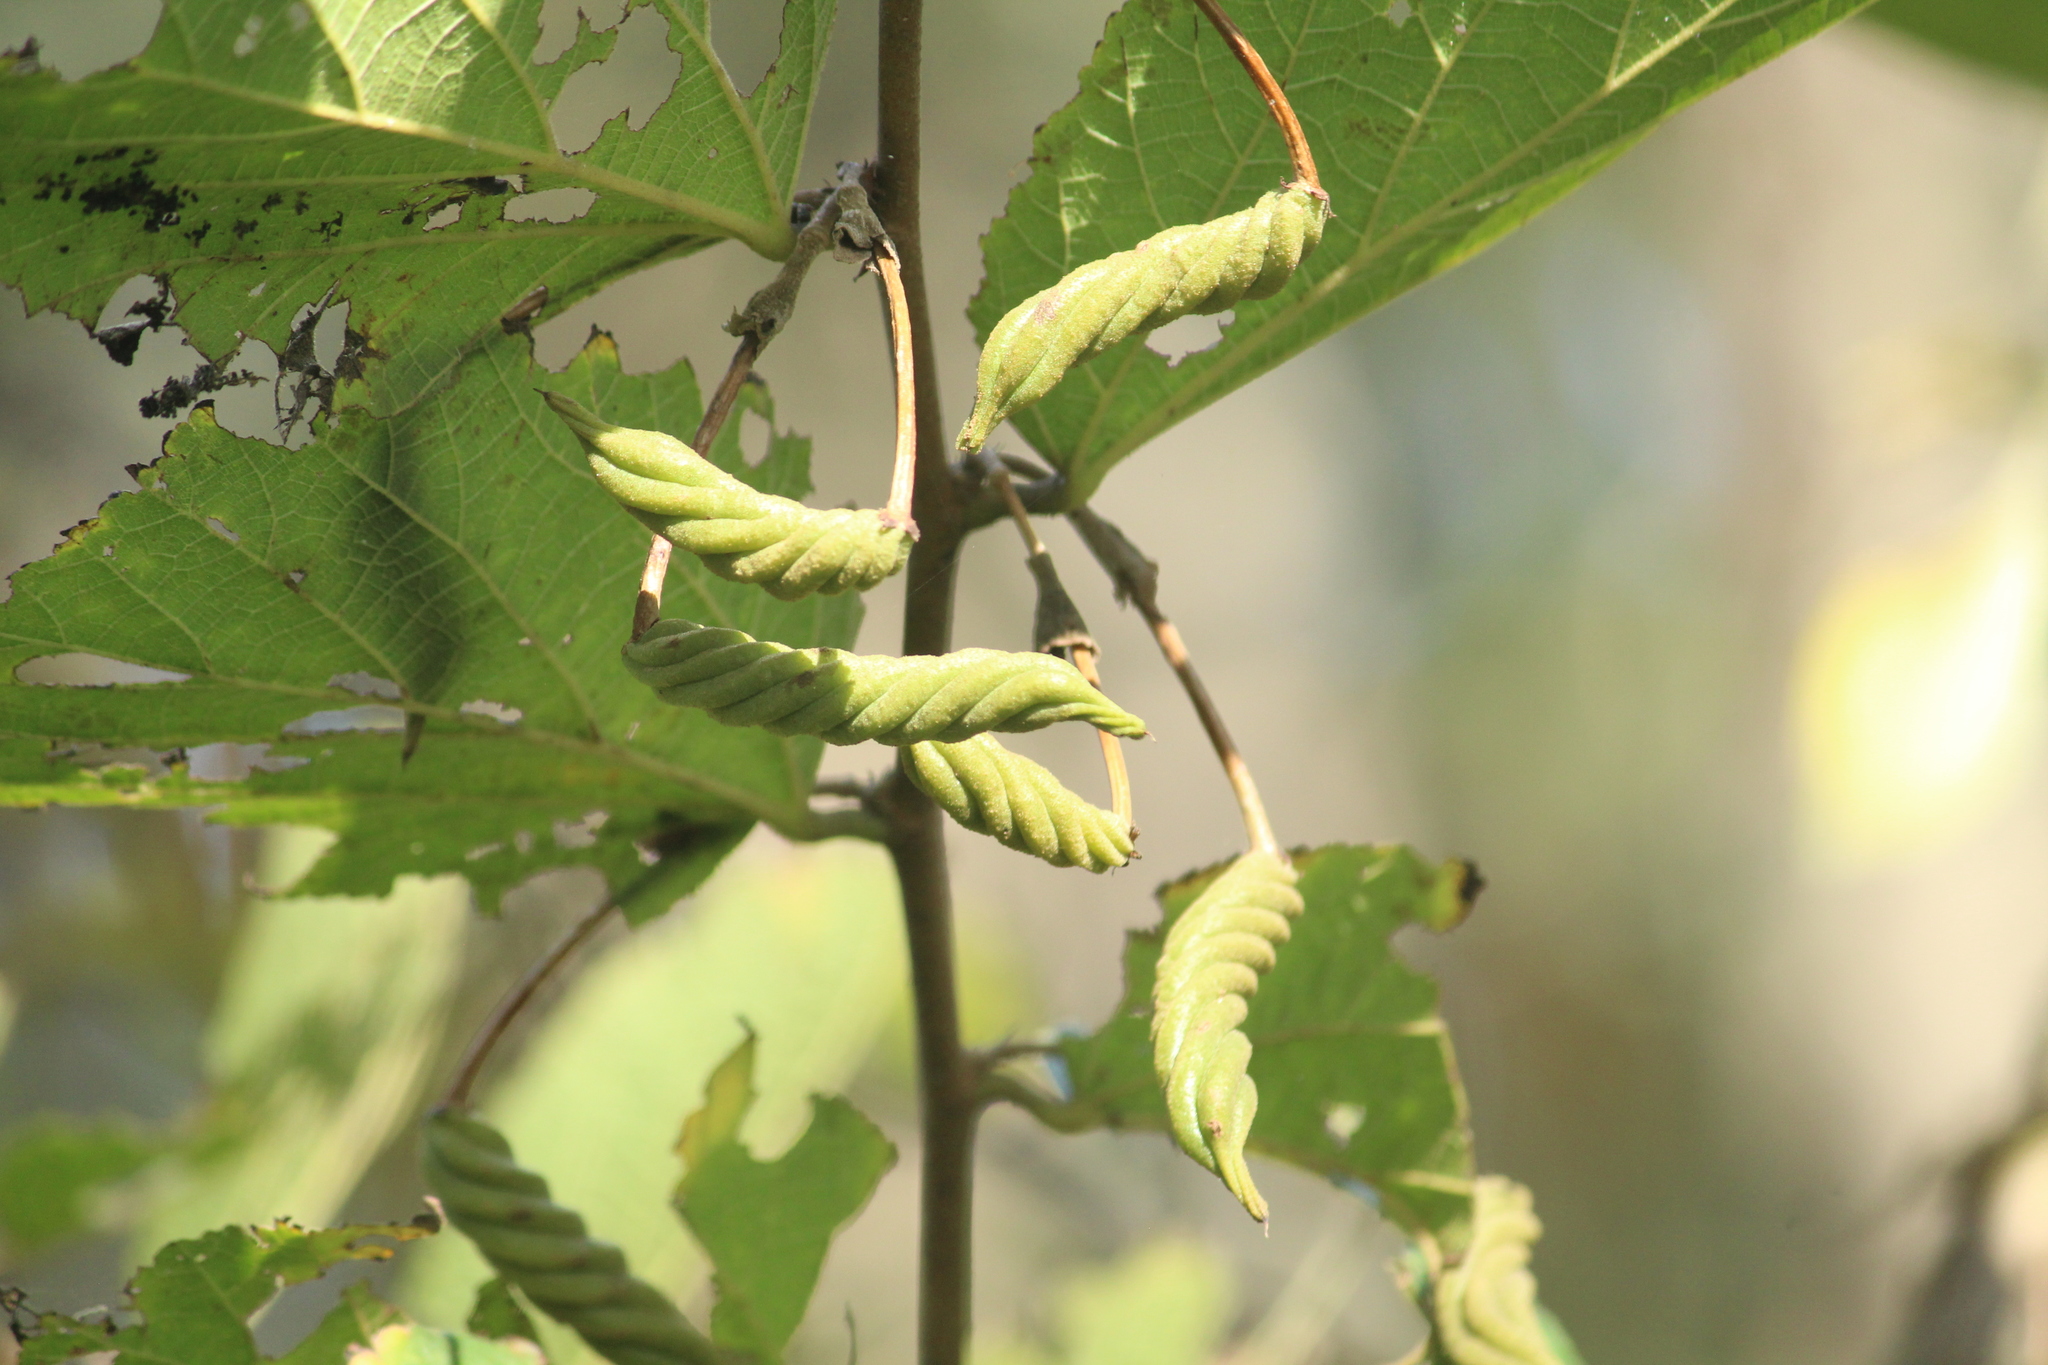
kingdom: Plantae
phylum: Tracheophyta
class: Magnoliopsida
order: Malvales
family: Malvaceae
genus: Helicteres
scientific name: Helicteres isora
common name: East indian screwtree
